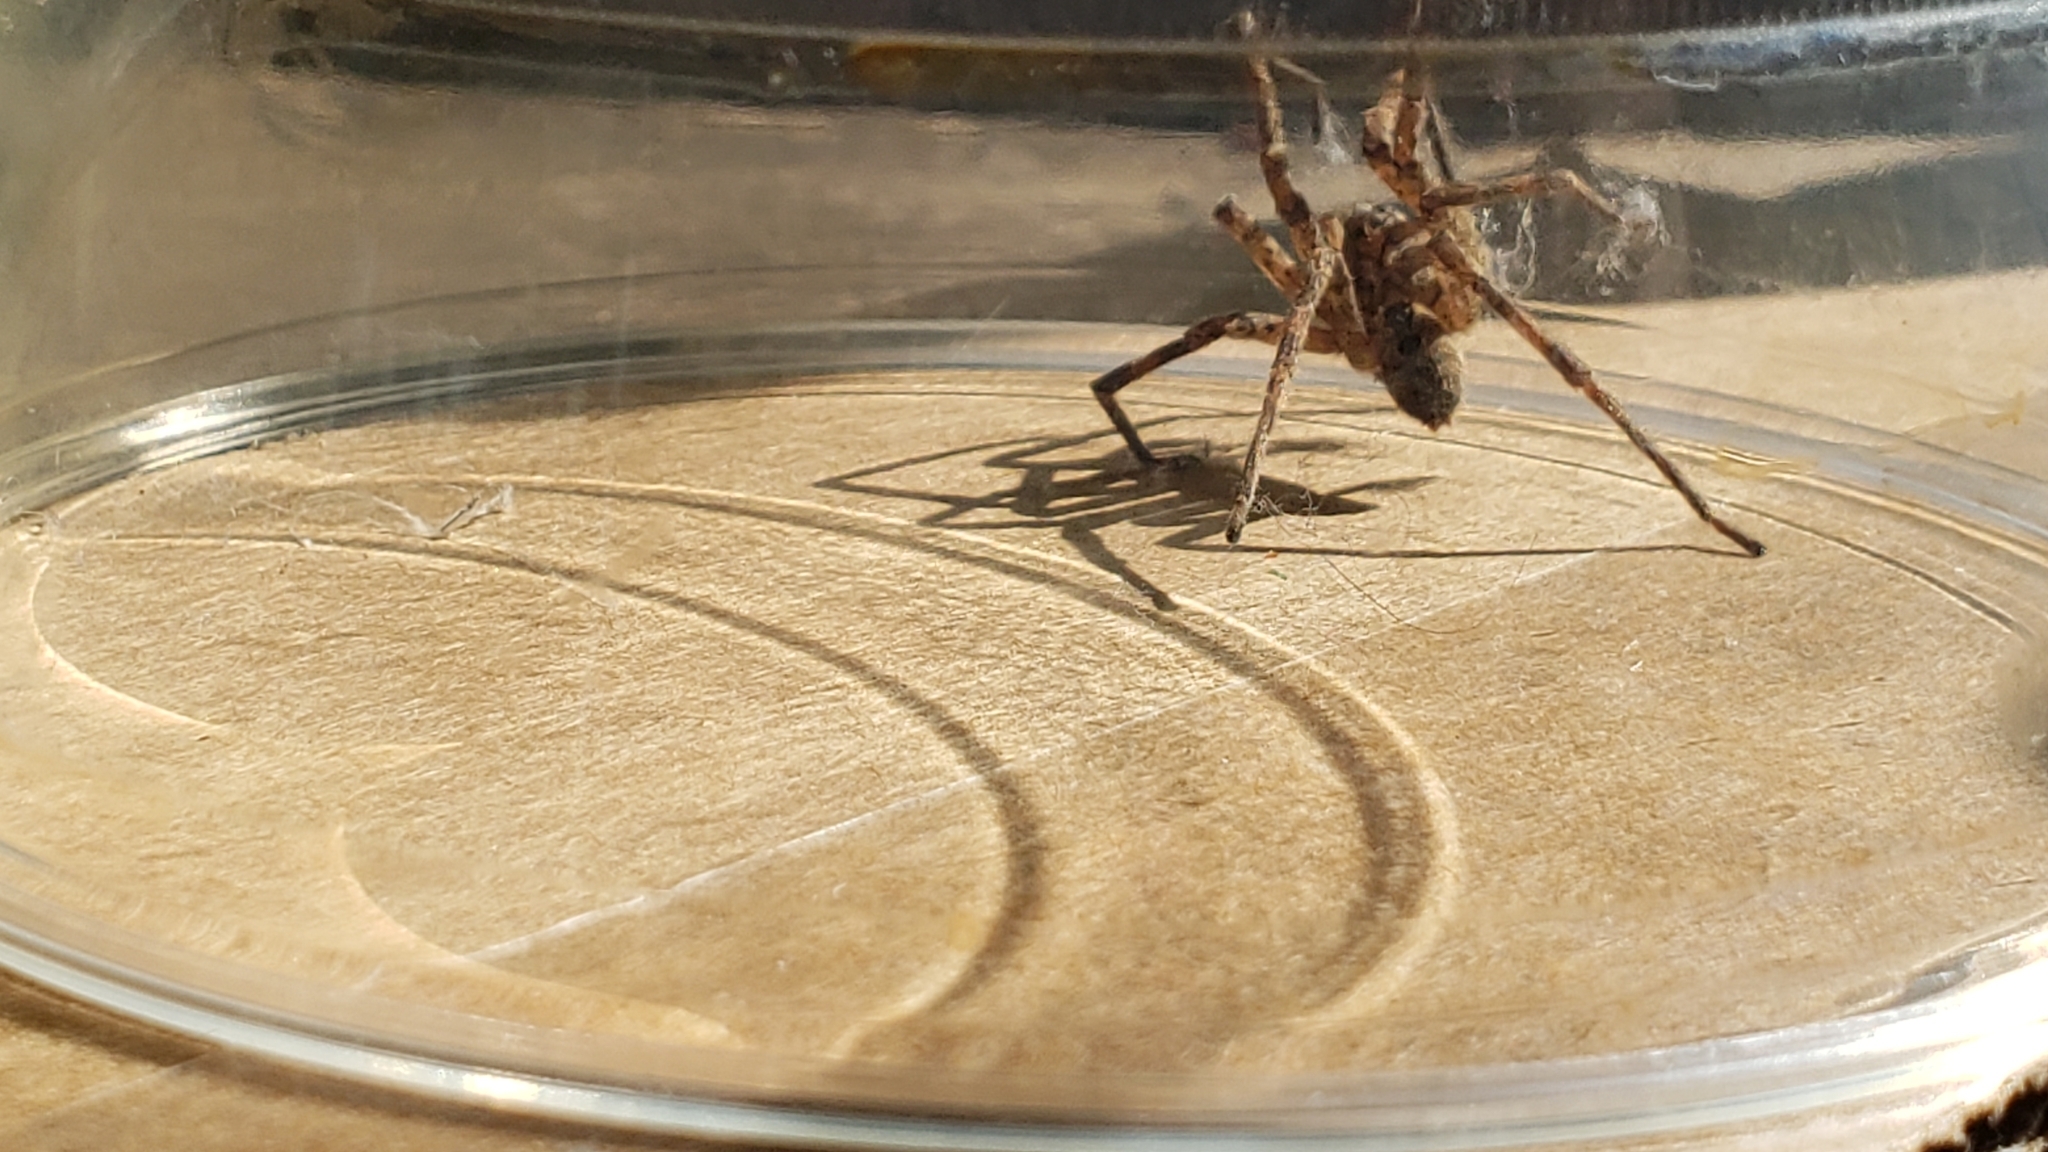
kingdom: Animalia
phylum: Arthropoda
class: Arachnida
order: Araneae
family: Zoropsidae
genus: Zoropsis
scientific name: Zoropsis spinimana
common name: Zoropsid spider
